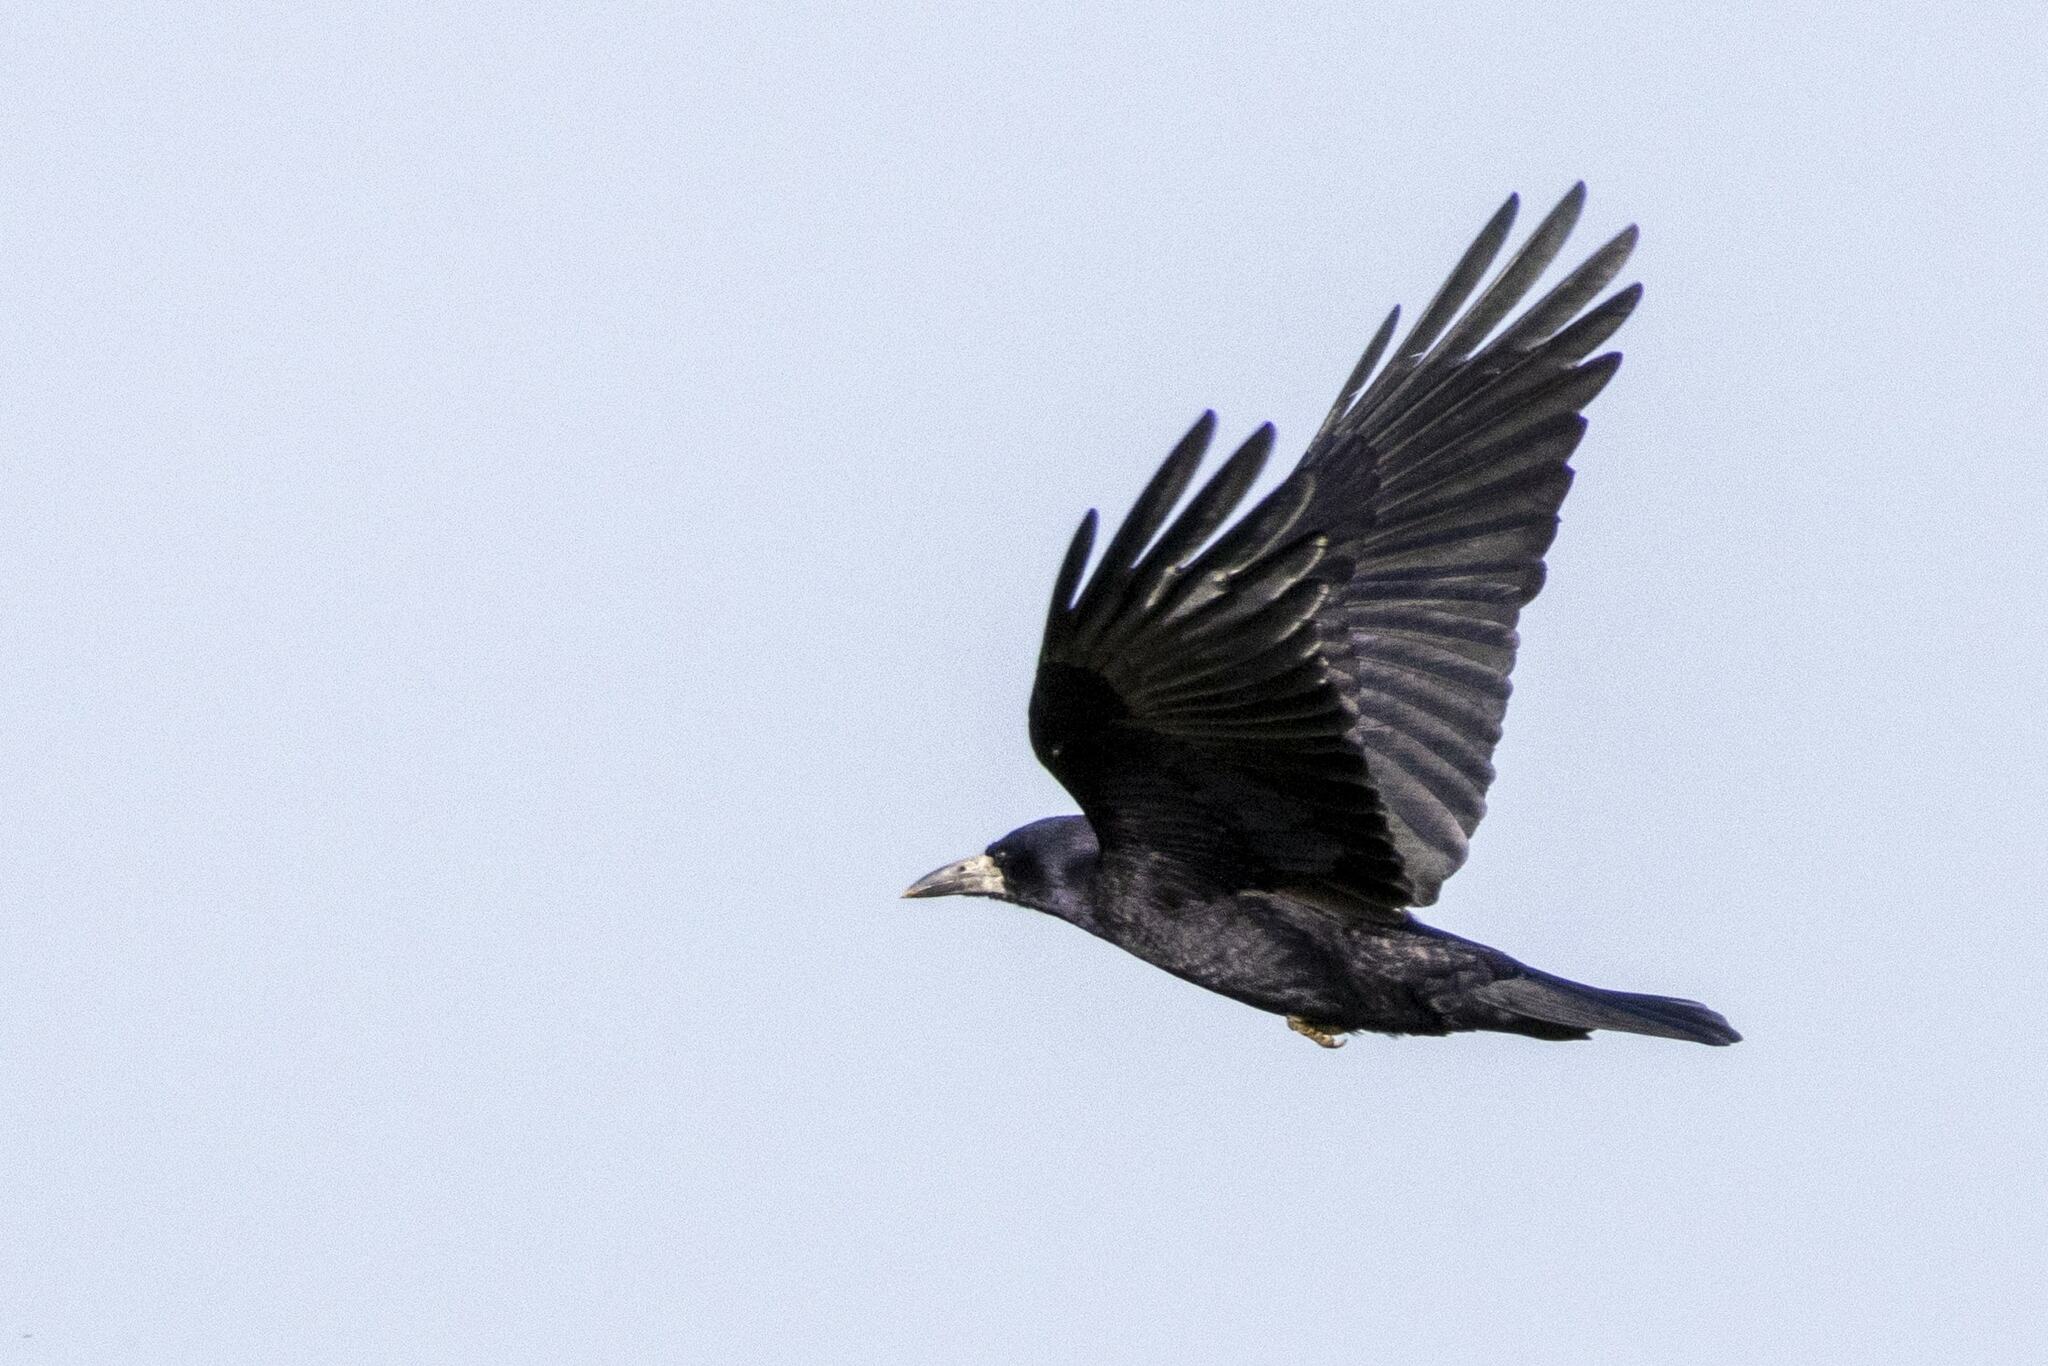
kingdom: Animalia
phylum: Chordata
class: Aves
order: Passeriformes
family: Corvidae
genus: Corvus
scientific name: Corvus frugilegus
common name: Rook
